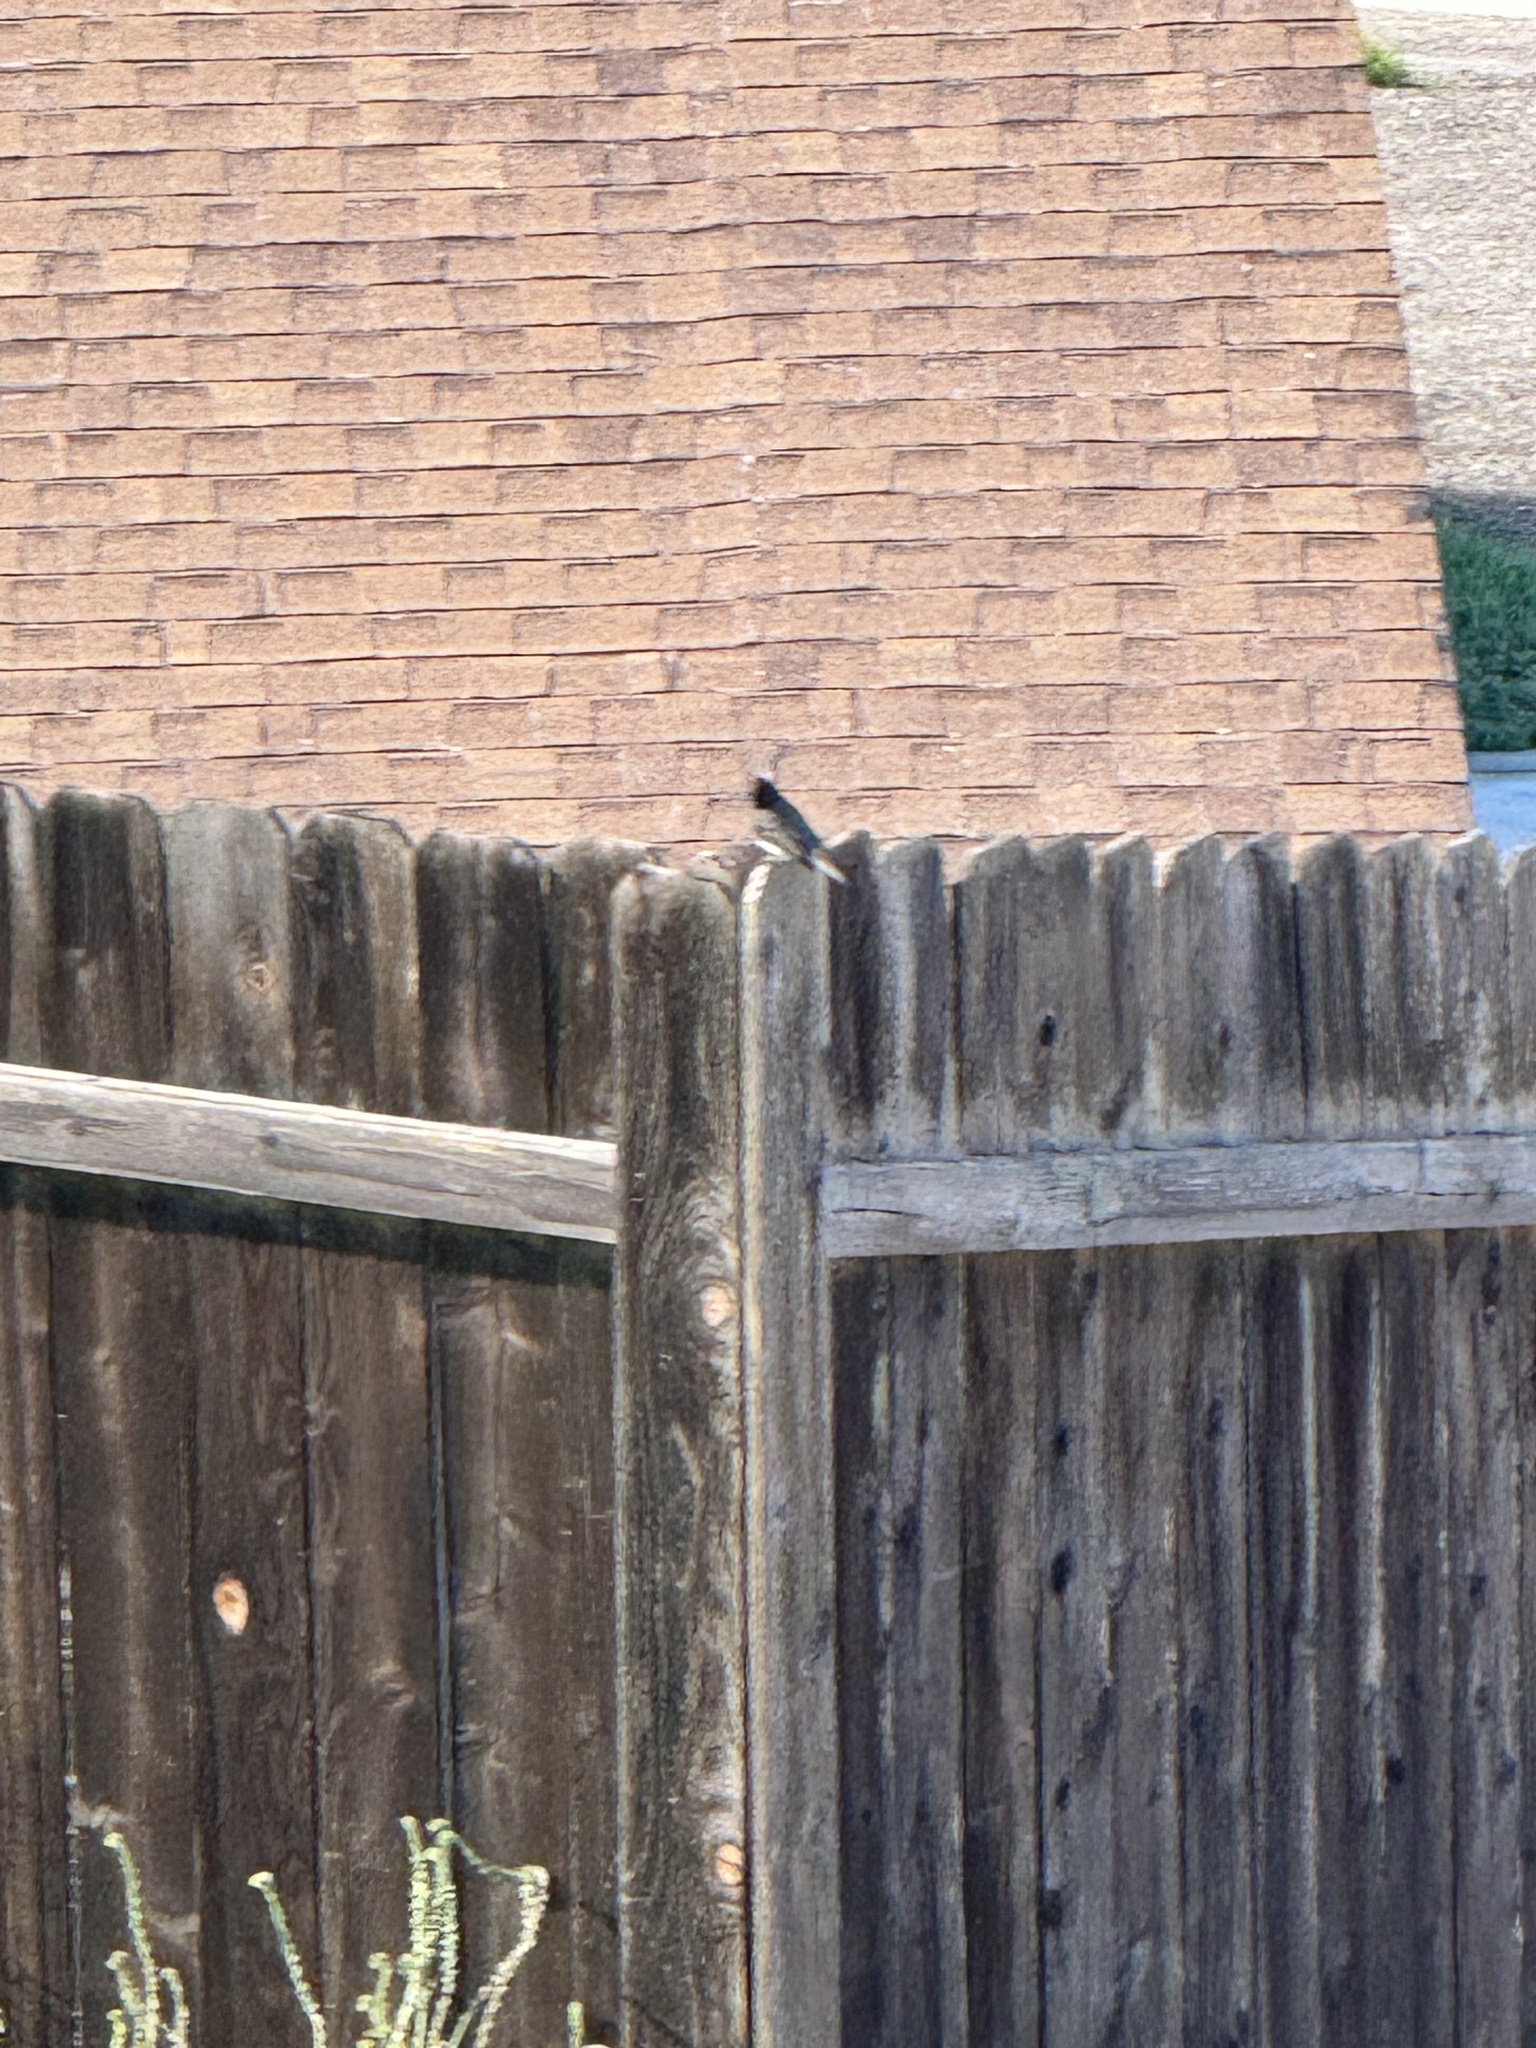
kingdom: Animalia
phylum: Chordata
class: Aves
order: Passeriformes
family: Tyrannidae
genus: Sayornis
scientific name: Sayornis nigricans
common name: Black phoebe
